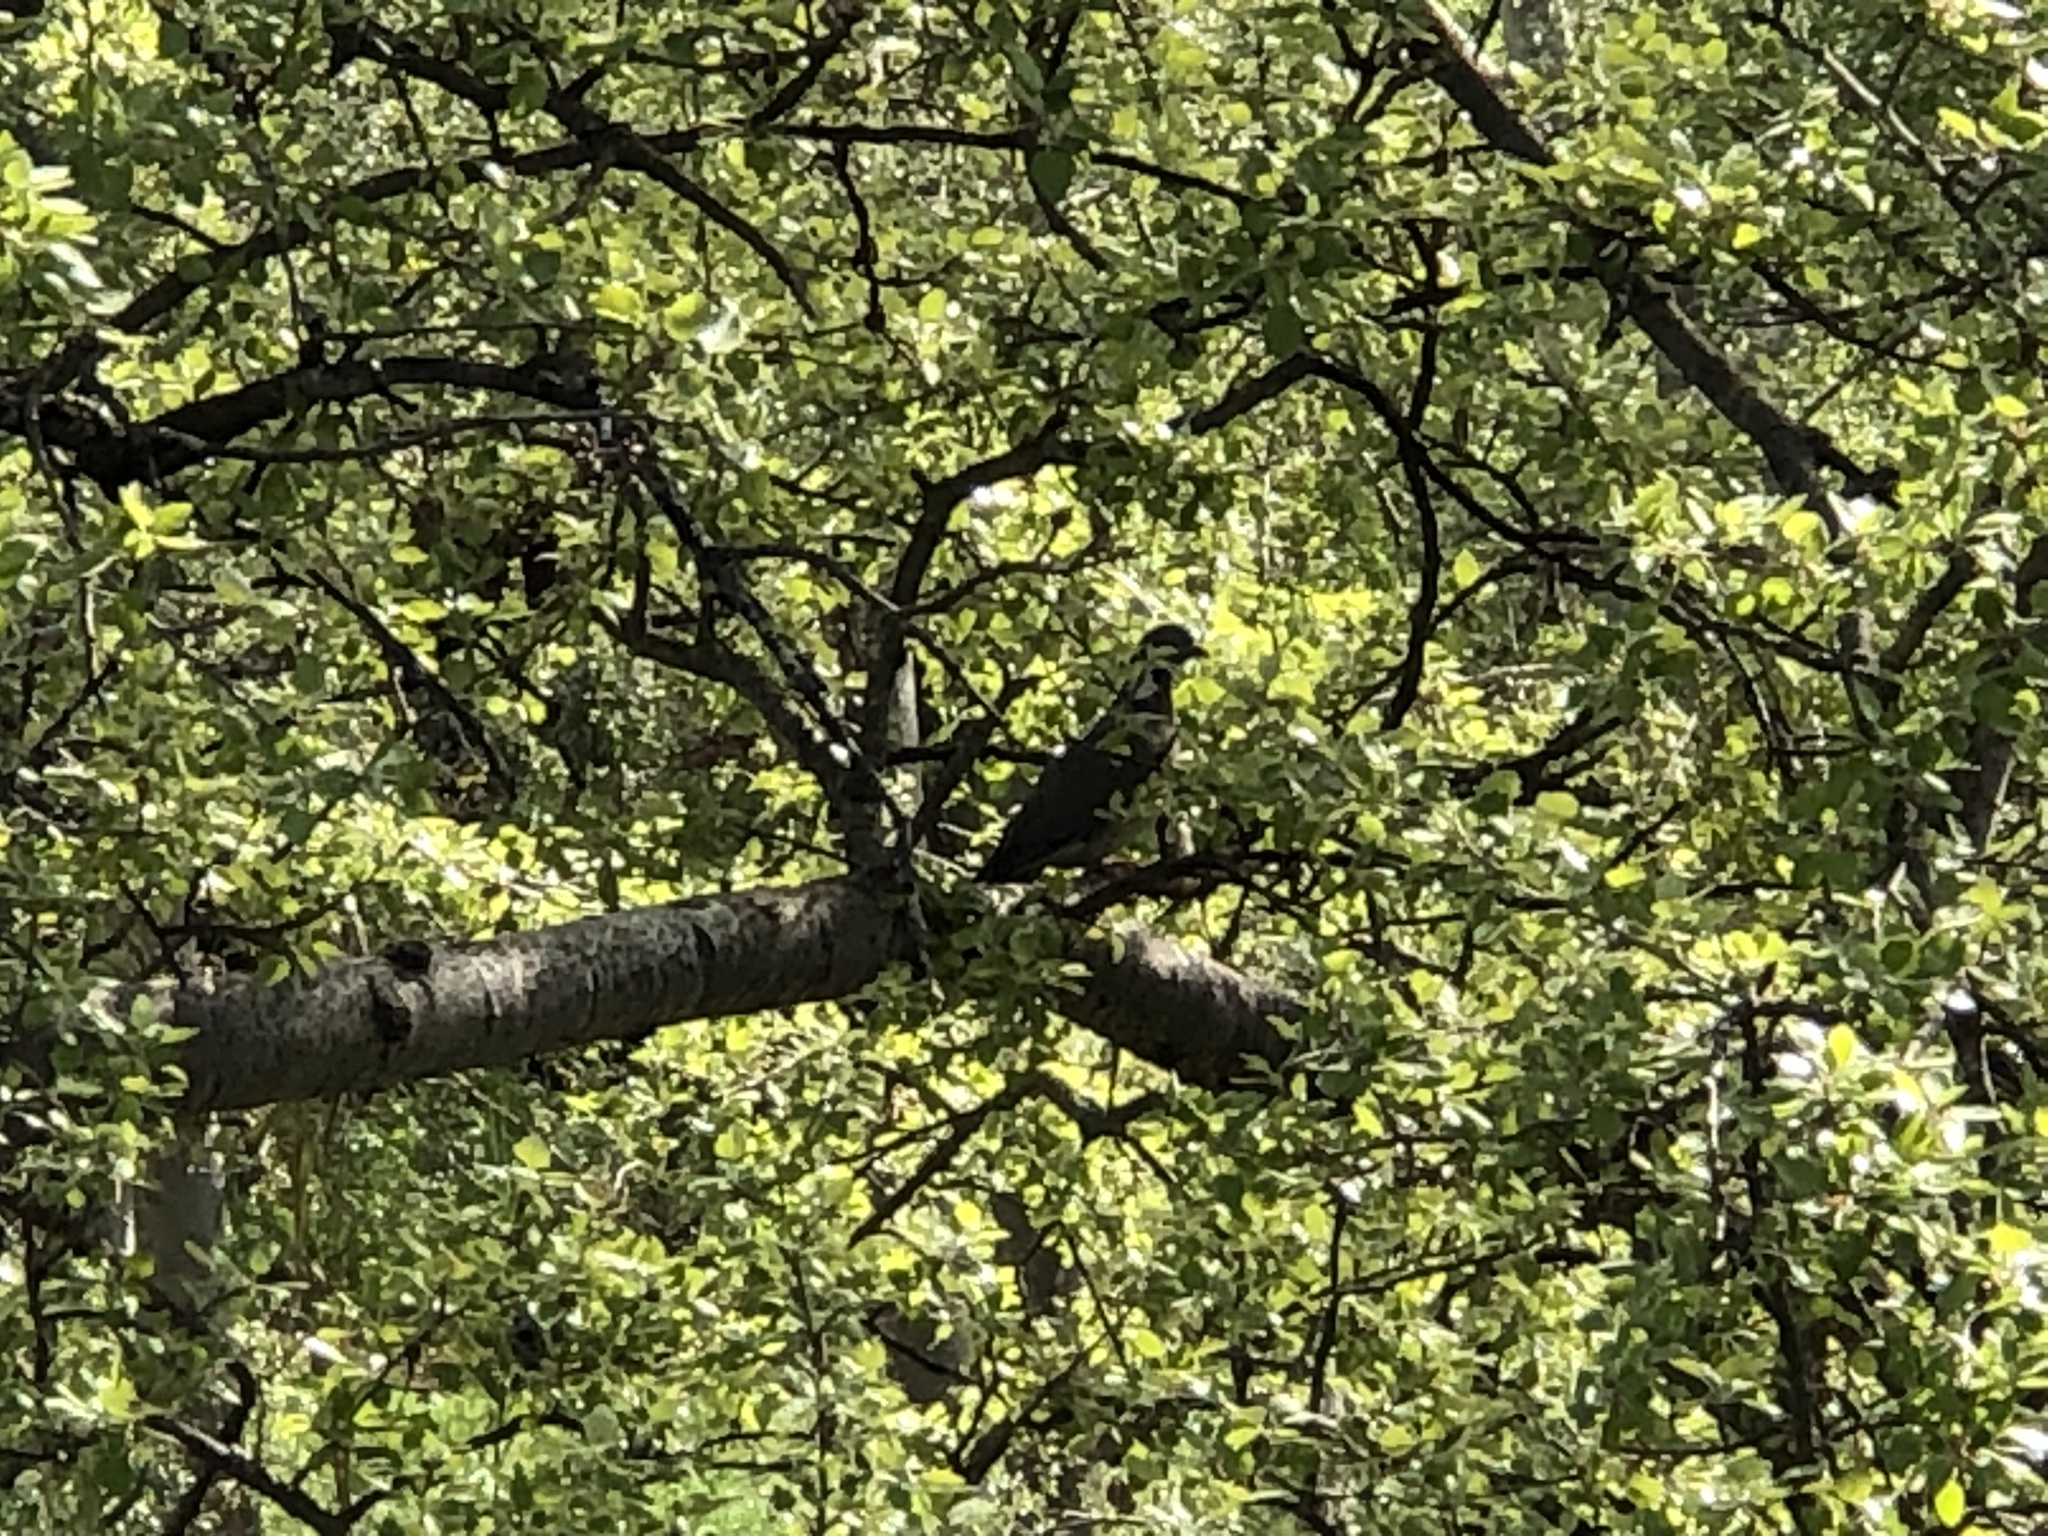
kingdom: Animalia
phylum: Chordata
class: Aves
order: Columbiformes
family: Columbidae
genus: Columba
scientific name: Columba palumbus
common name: Common wood pigeon
